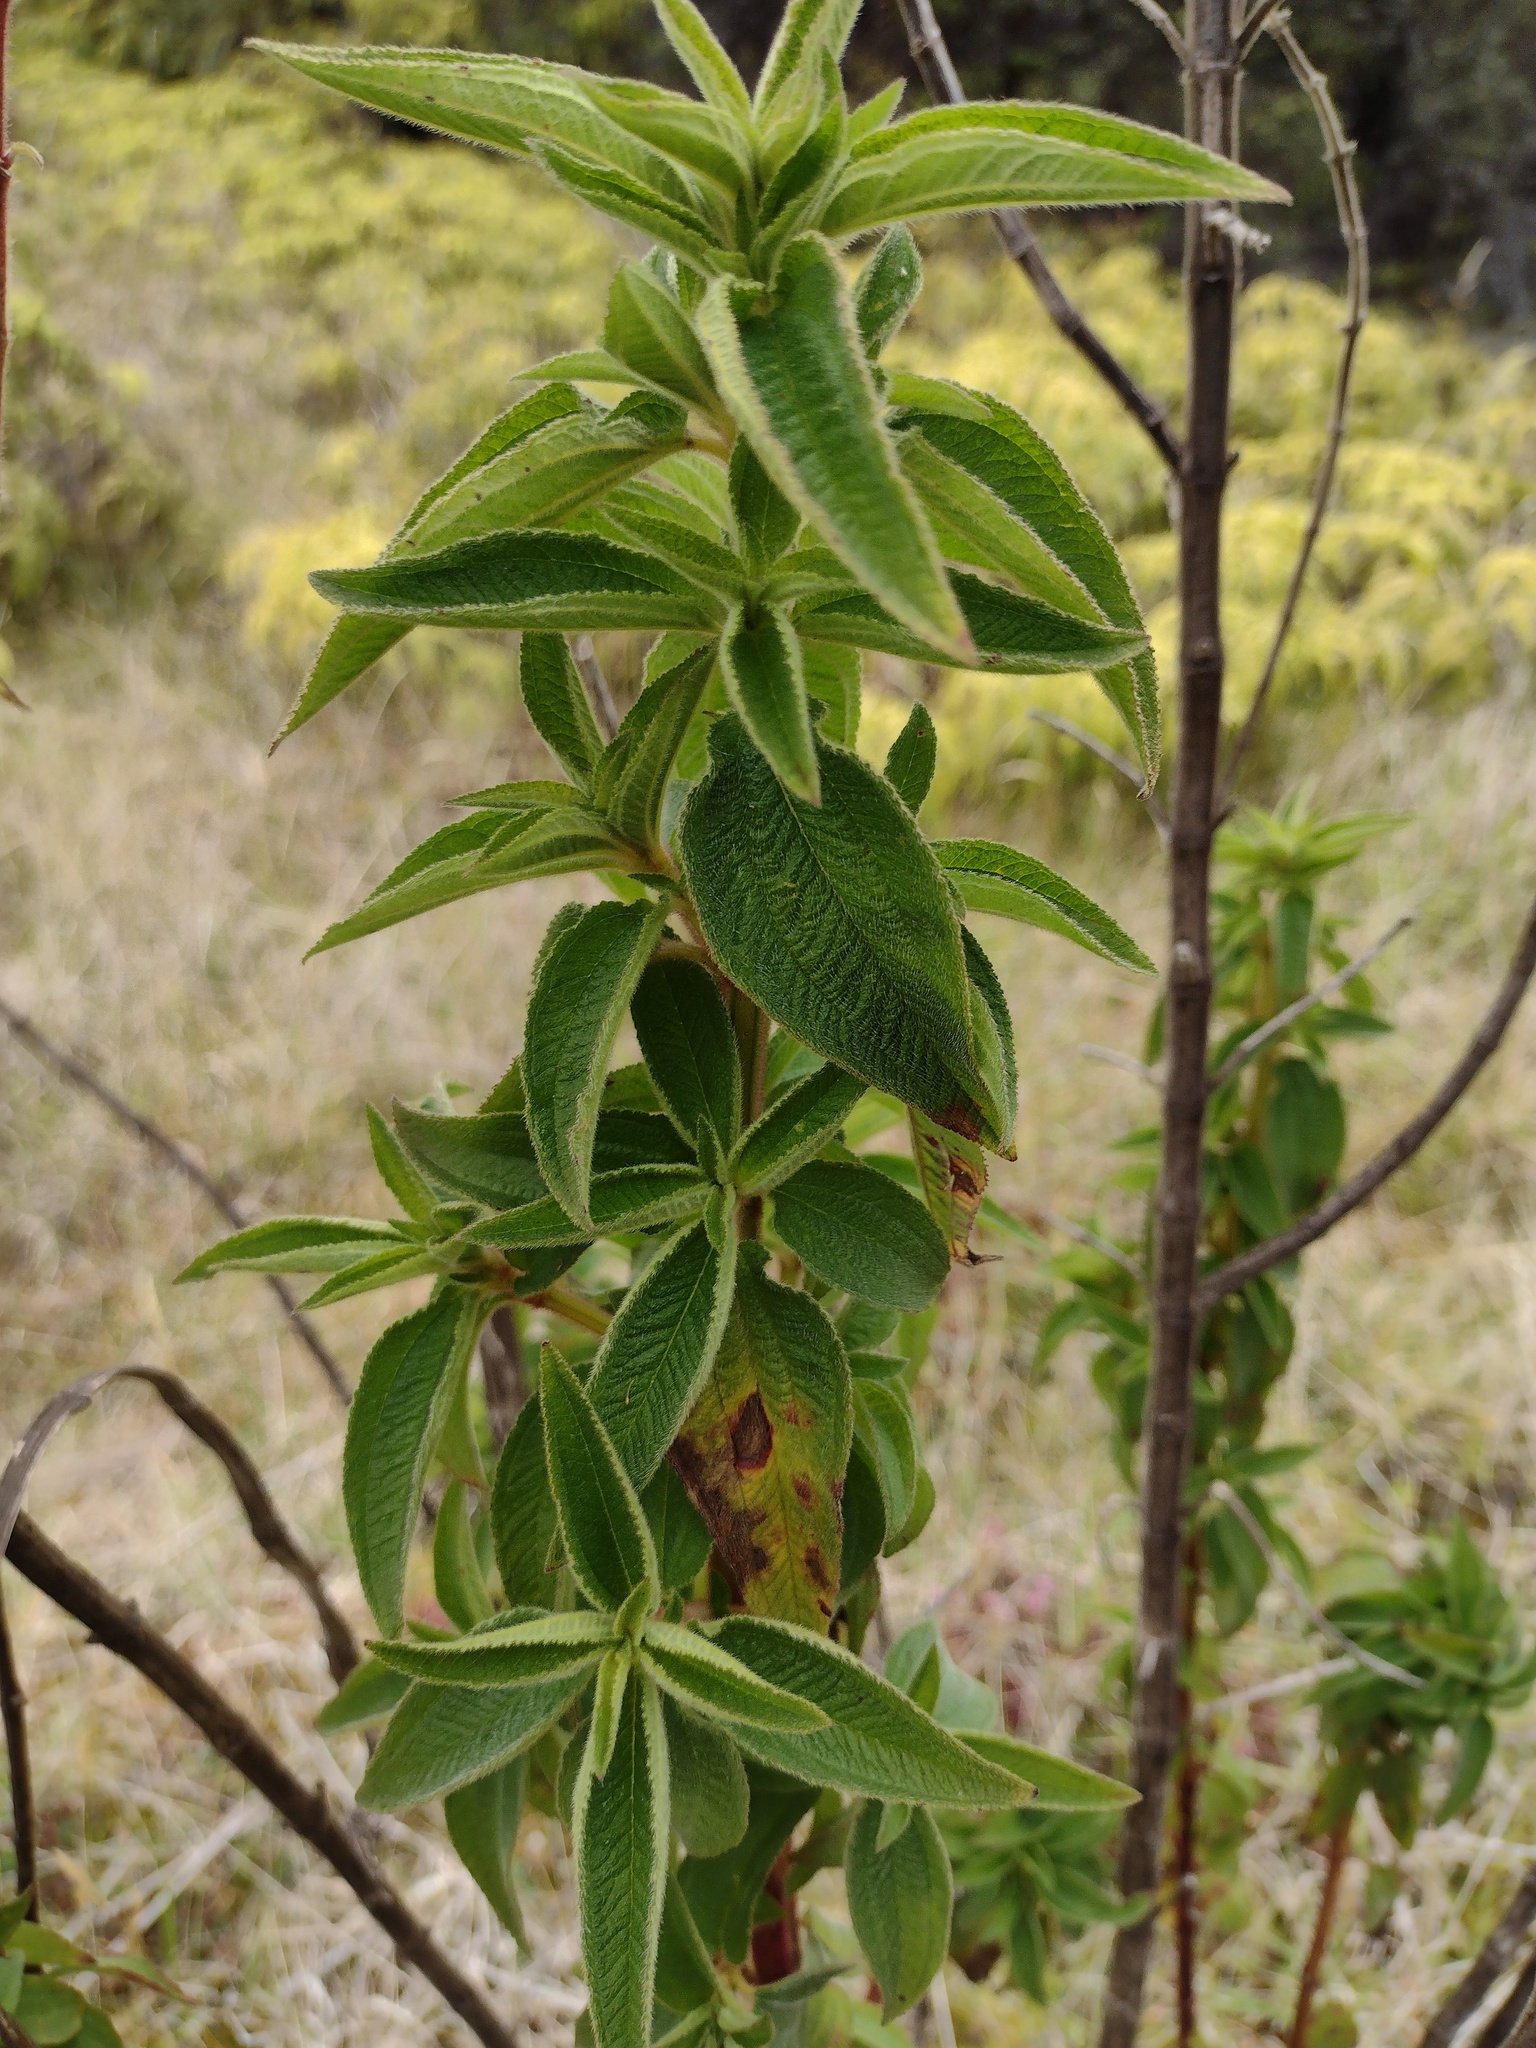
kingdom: Plantae
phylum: Tracheophyta
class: Magnoliopsida
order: Myrtales
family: Melastomataceae
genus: Chaetogastra
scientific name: Chaetogastra herbacea
